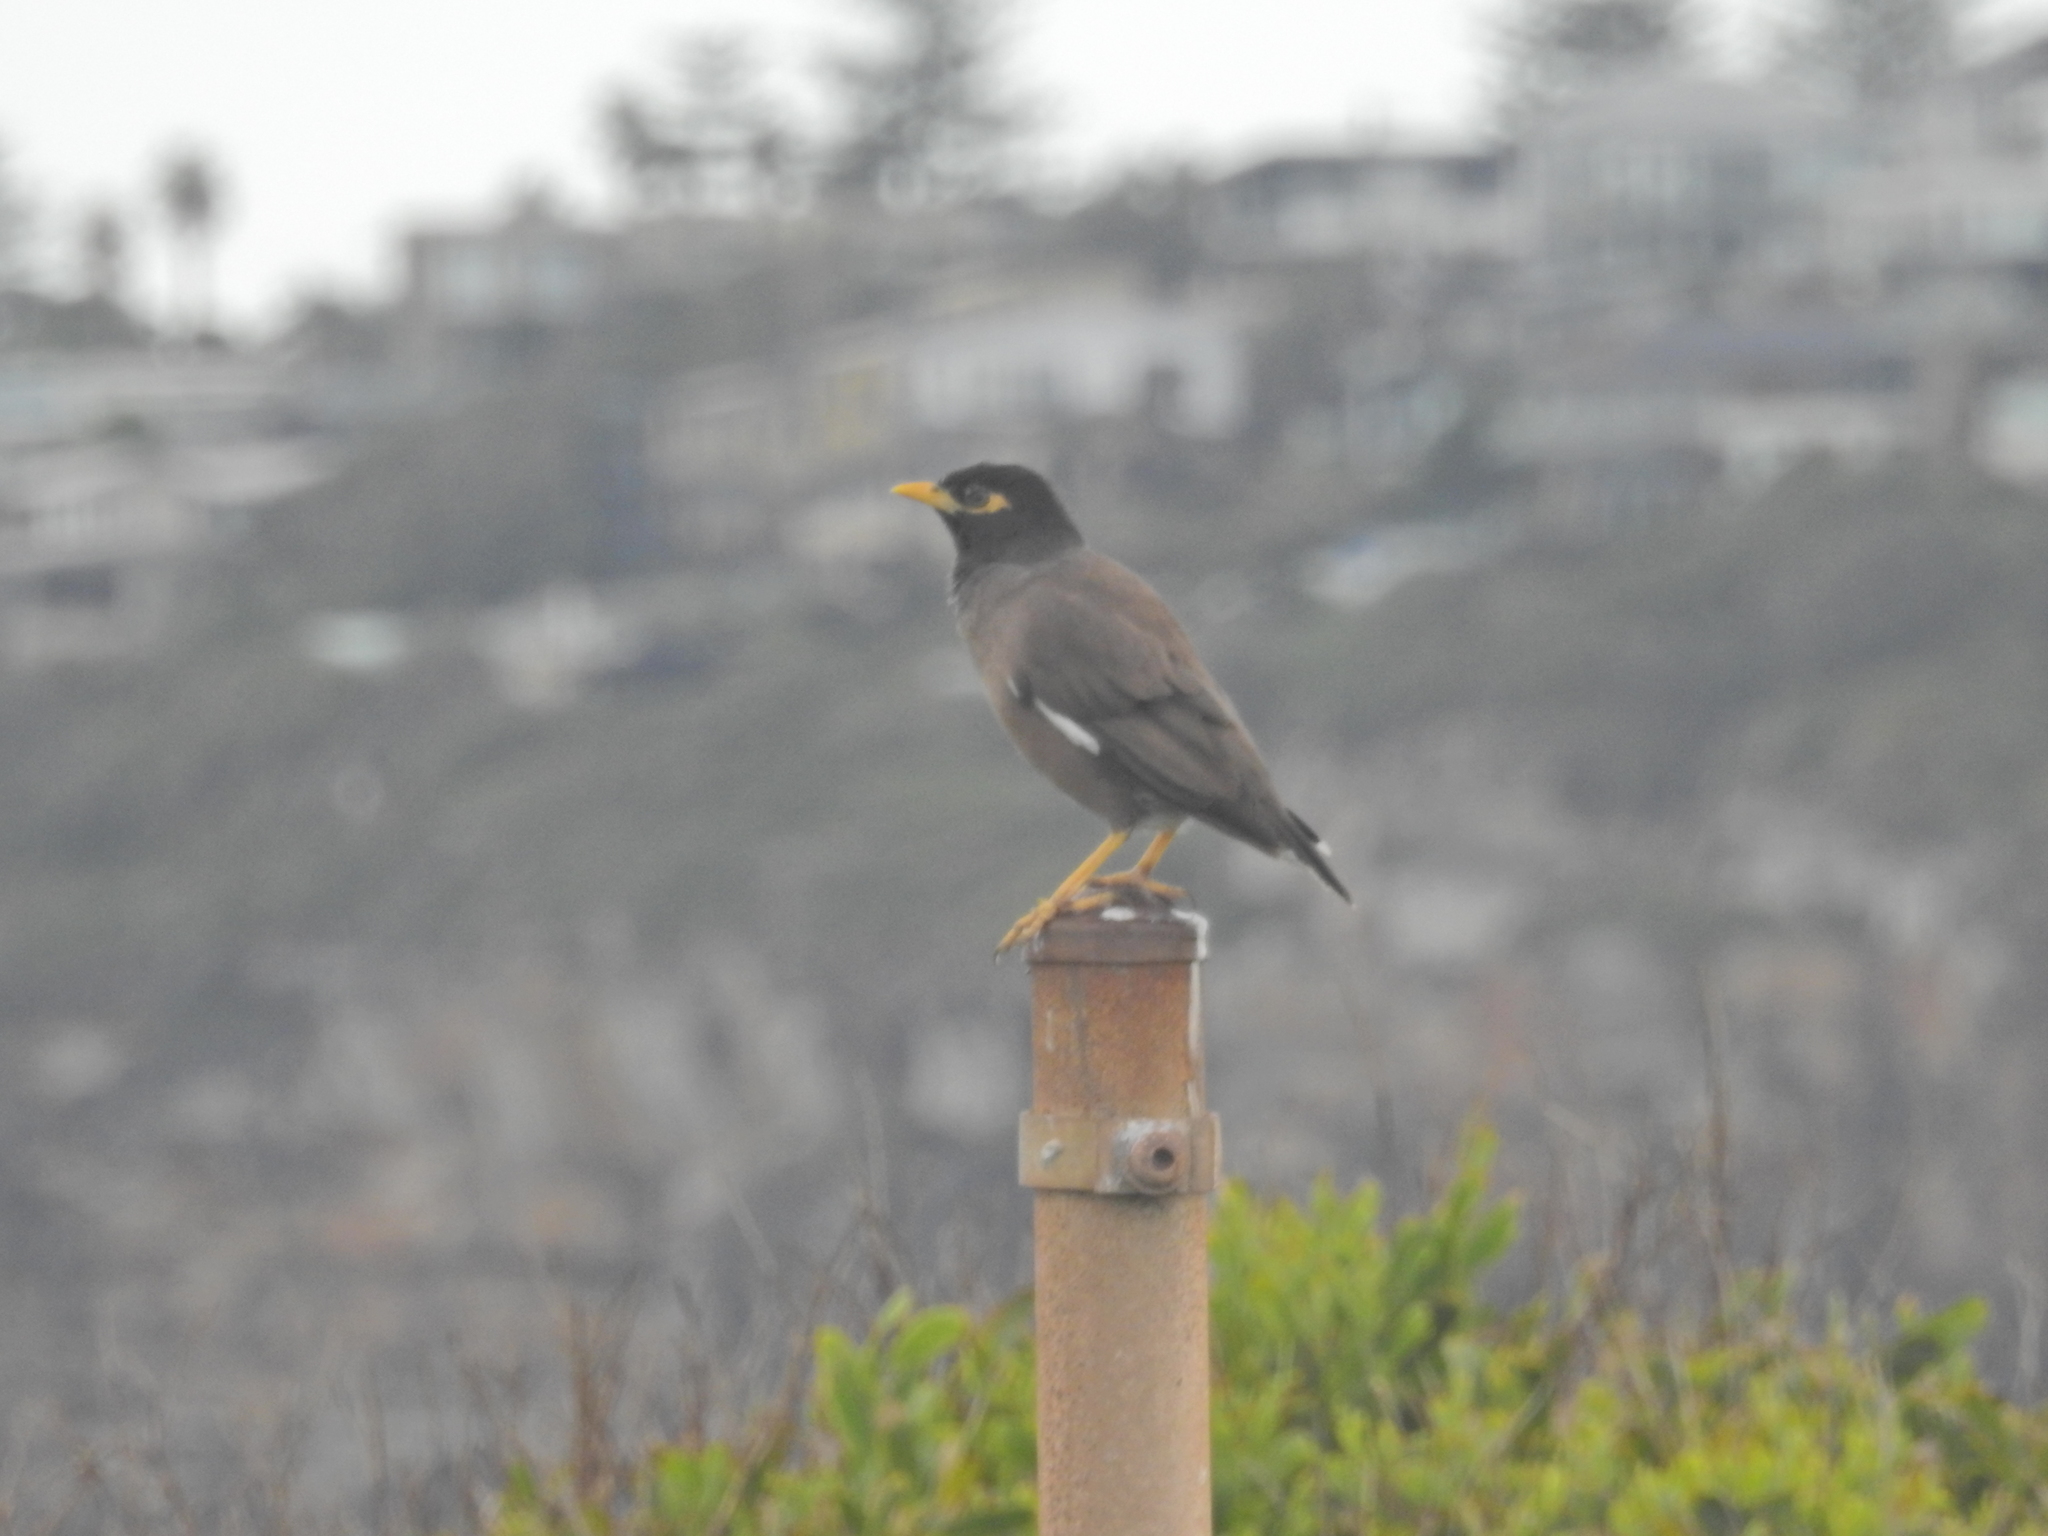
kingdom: Animalia
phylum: Chordata
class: Aves
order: Passeriformes
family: Sturnidae
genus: Acridotheres
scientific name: Acridotheres tristis
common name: Common myna
